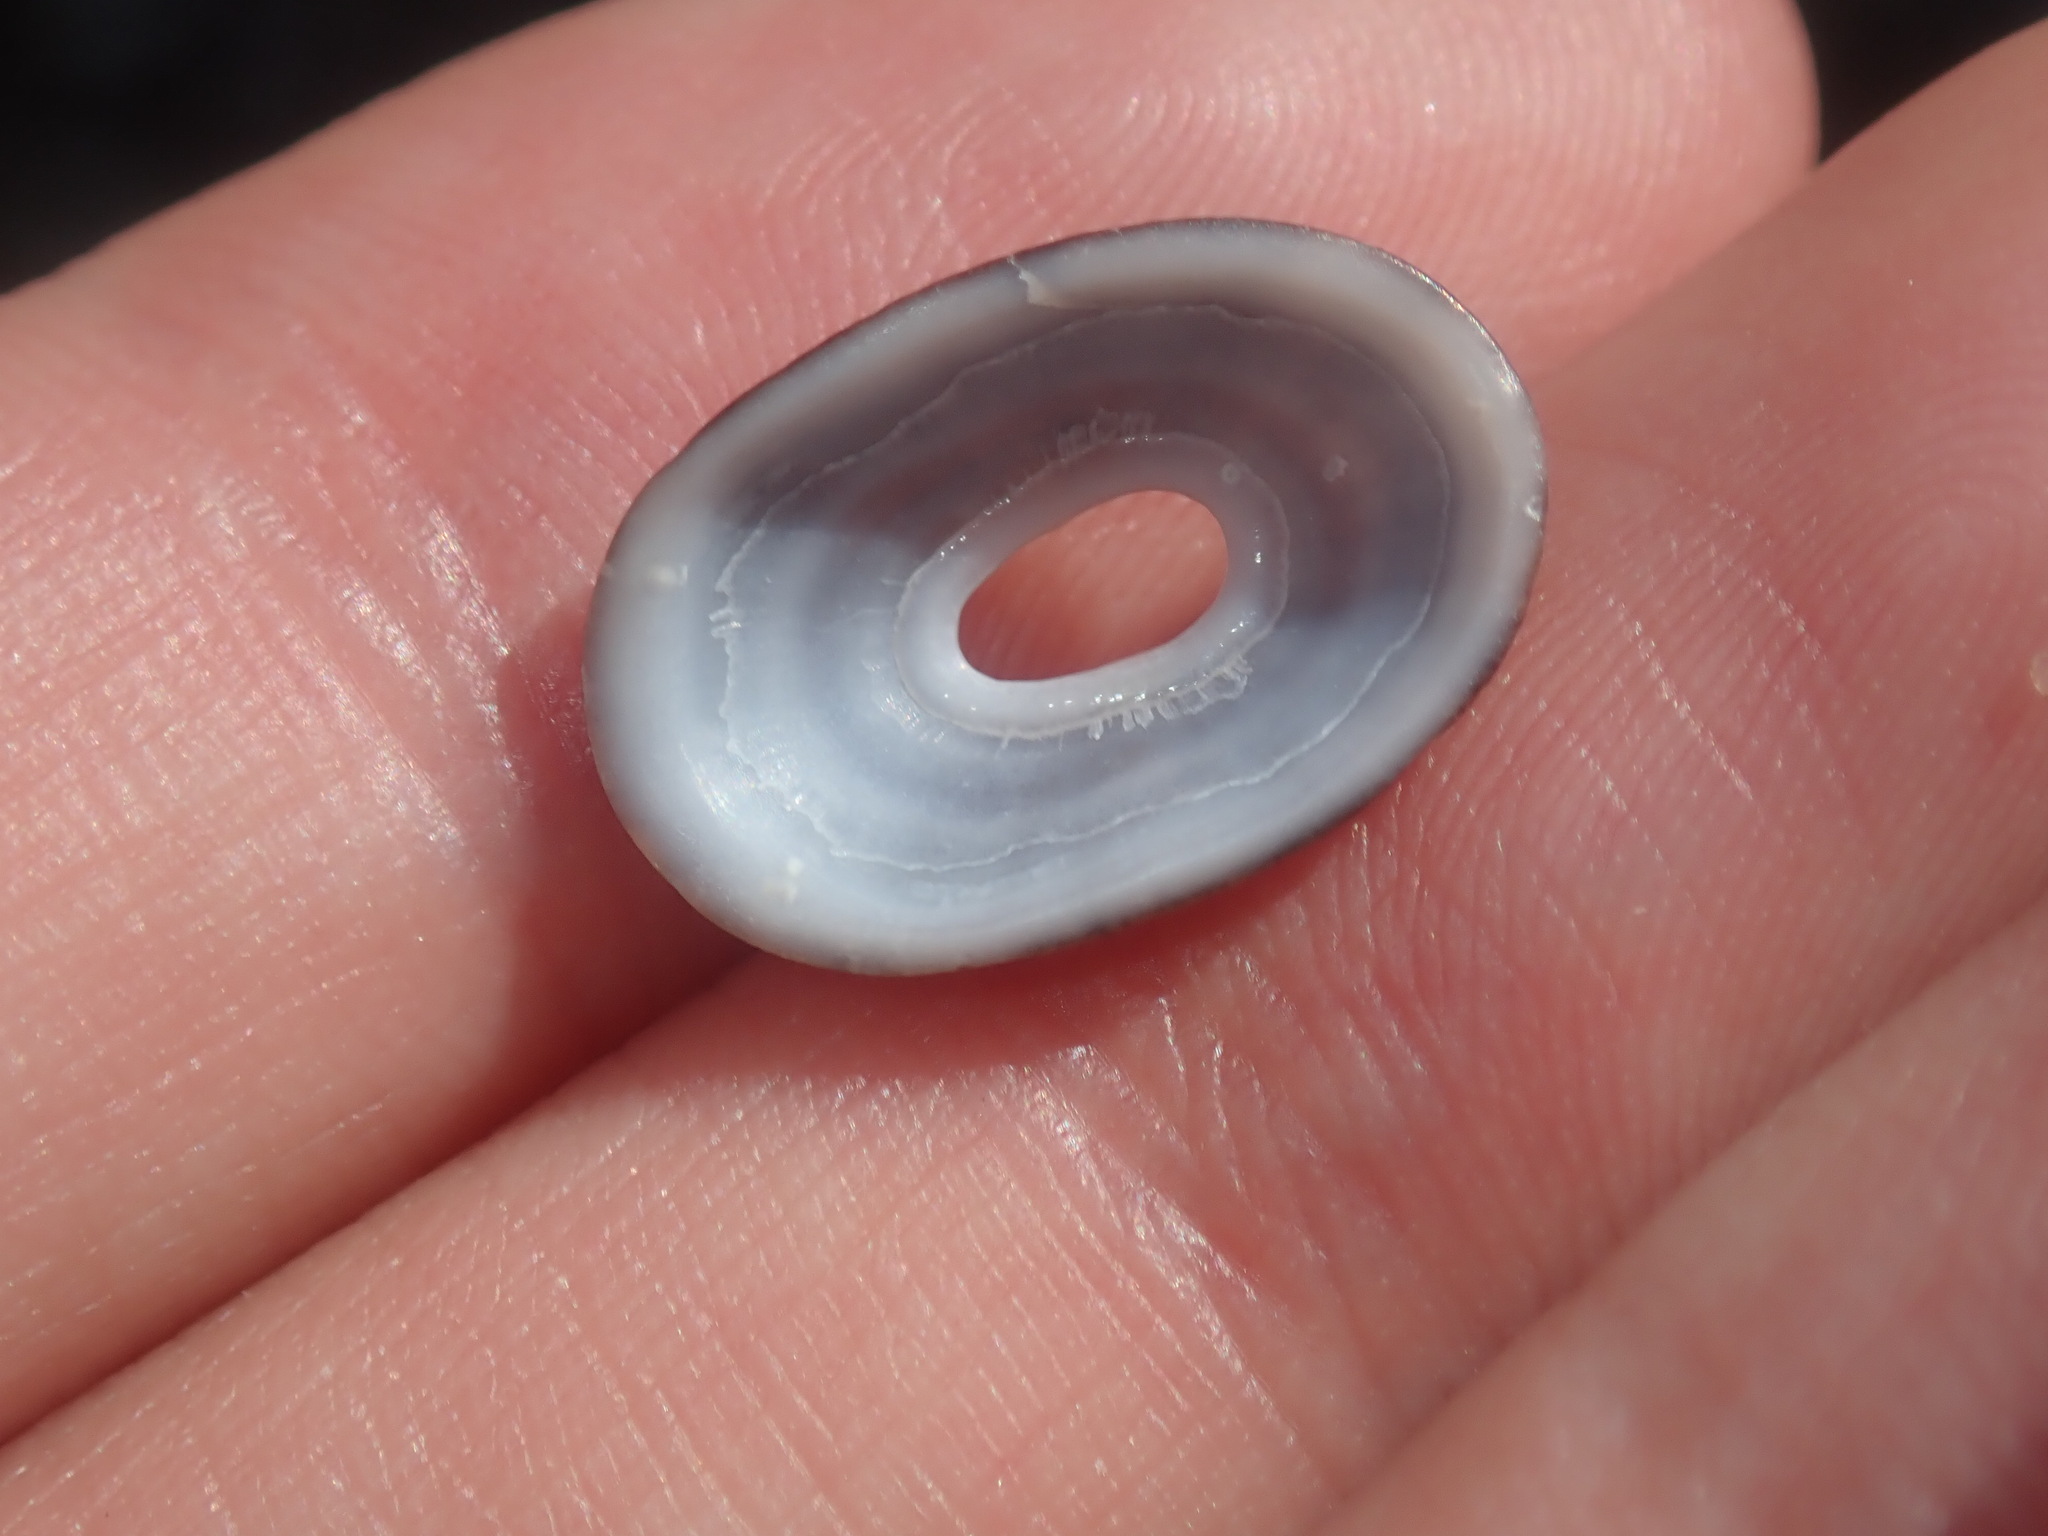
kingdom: Animalia
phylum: Mollusca
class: Gastropoda
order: Lepetellida
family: Fissurellidae
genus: Amblychilepas
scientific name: Amblychilepas nigrita
